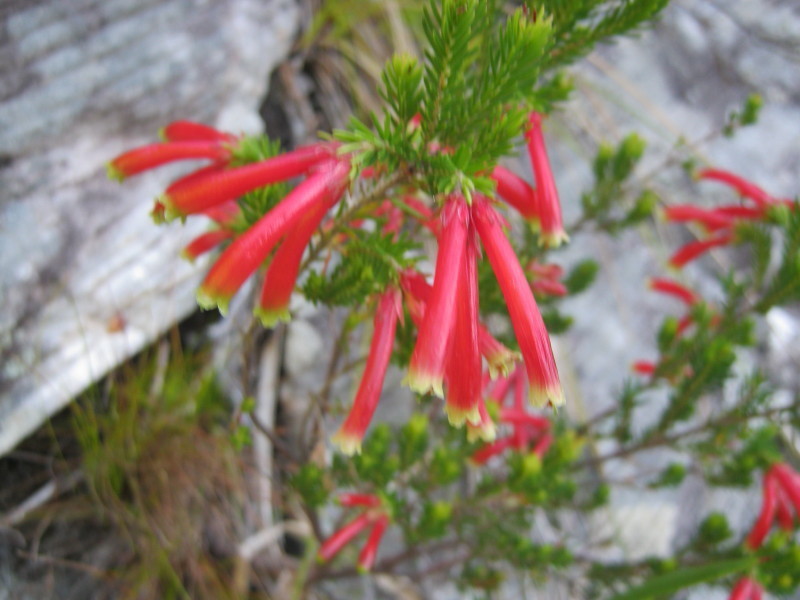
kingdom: Plantae
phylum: Tracheophyta
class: Magnoliopsida
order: Ericales
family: Ericaceae
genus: Erica
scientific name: Erica discolor
